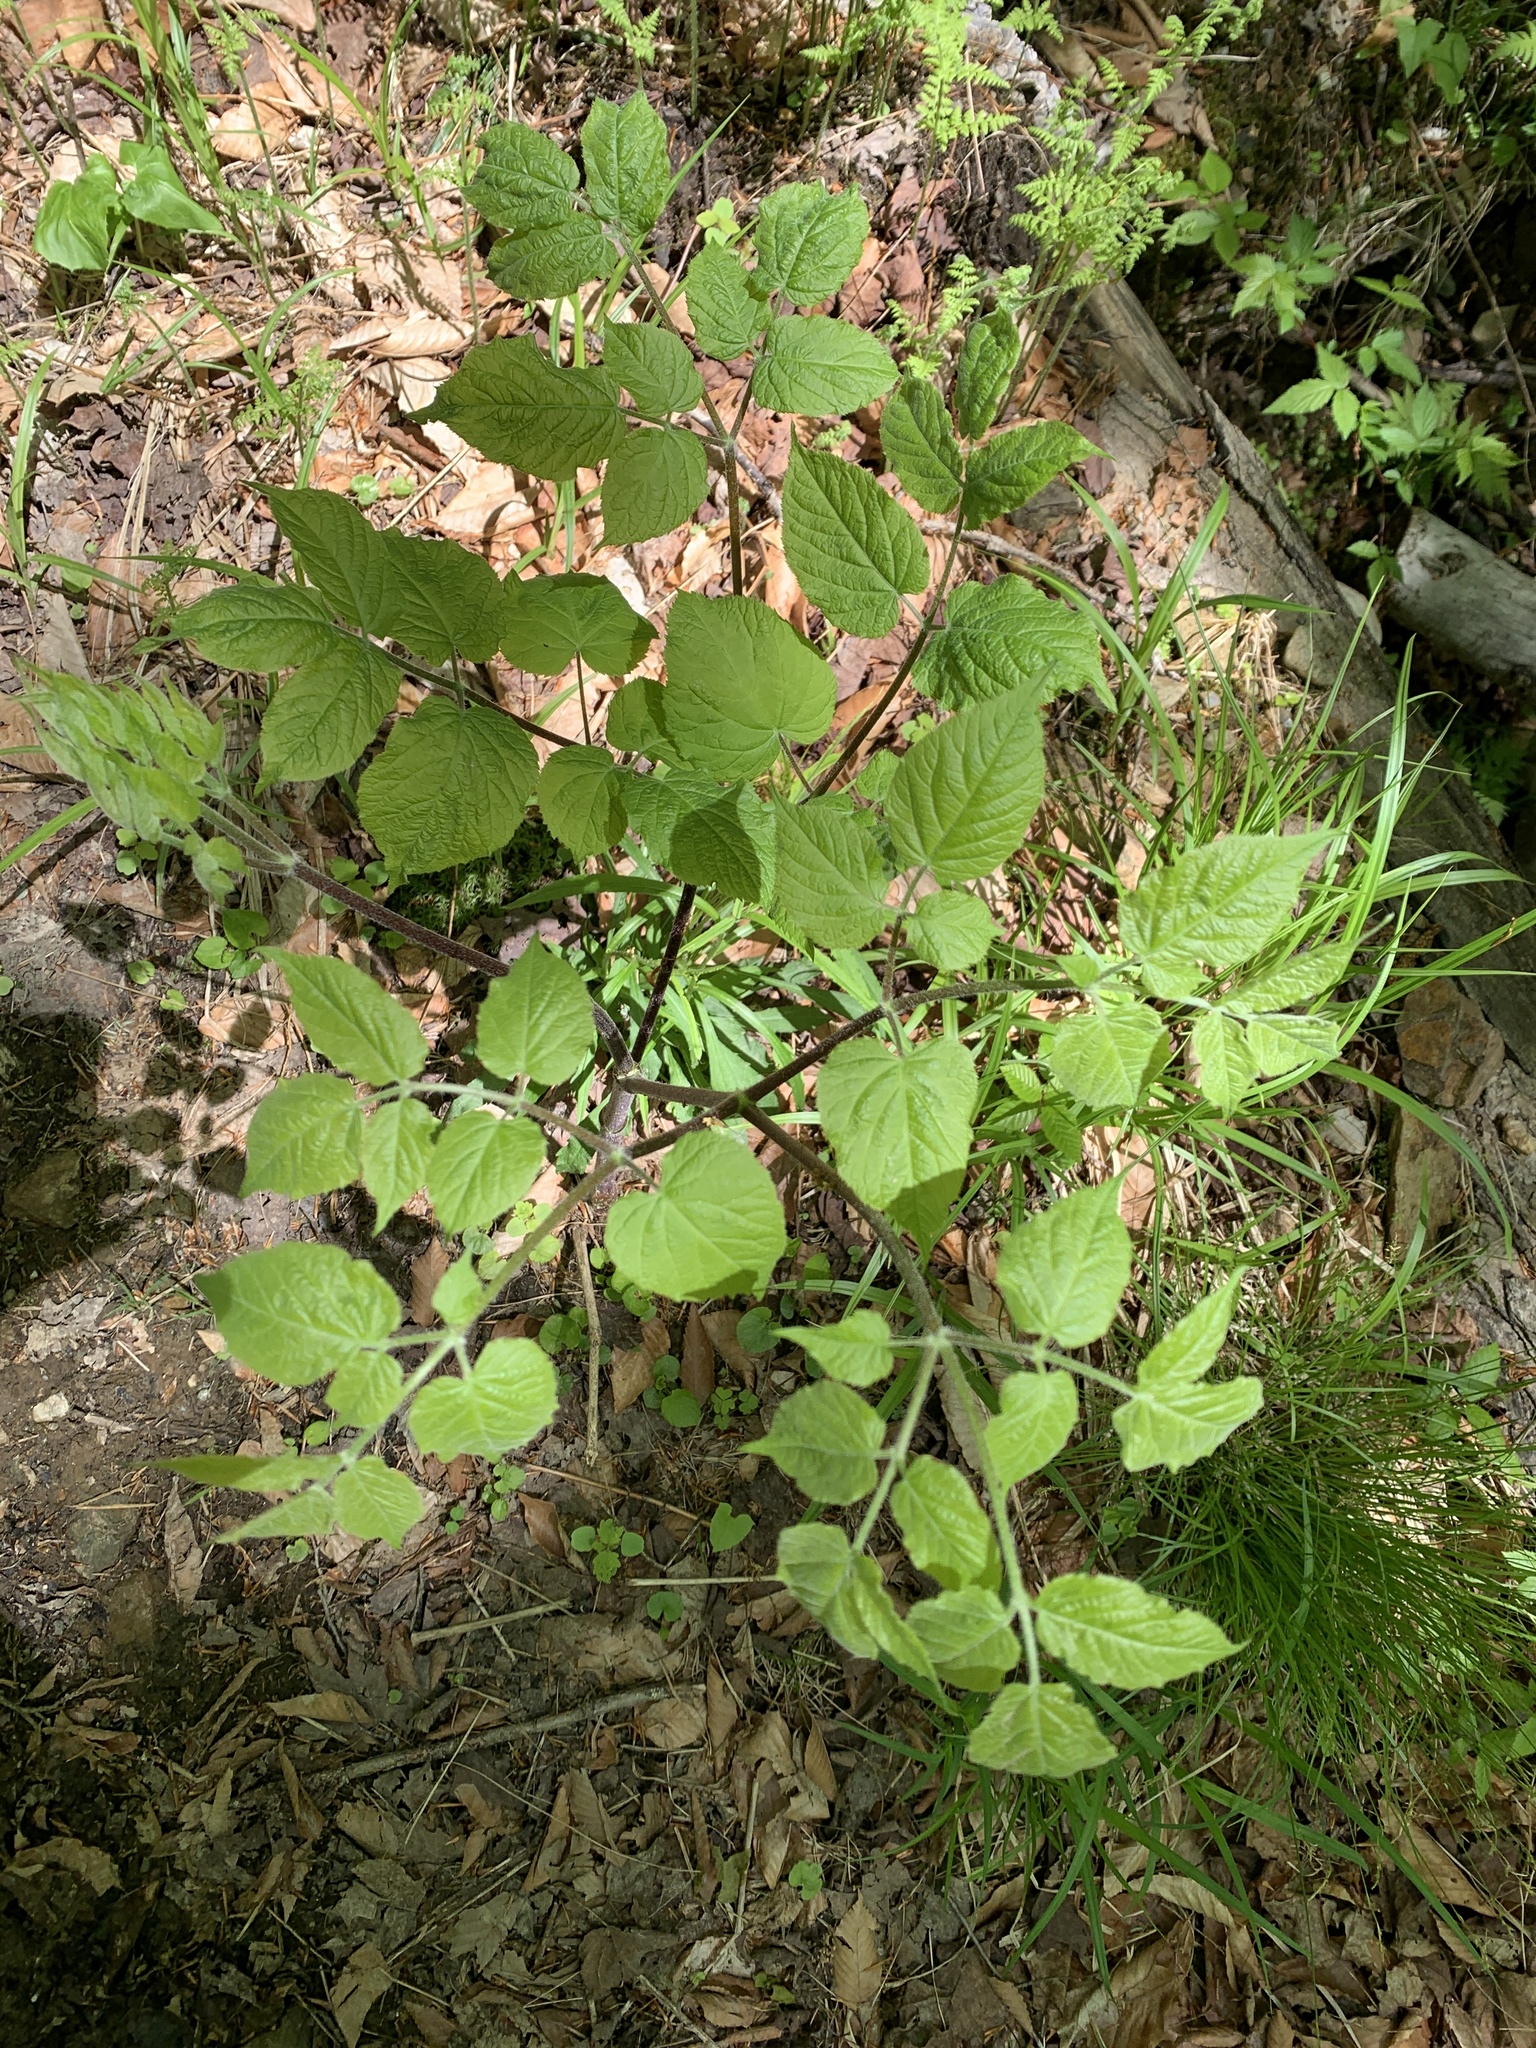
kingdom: Plantae
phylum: Tracheophyta
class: Magnoliopsida
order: Apiales
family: Araliaceae
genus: Aralia
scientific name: Aralia racemosa
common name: American-spikenard
